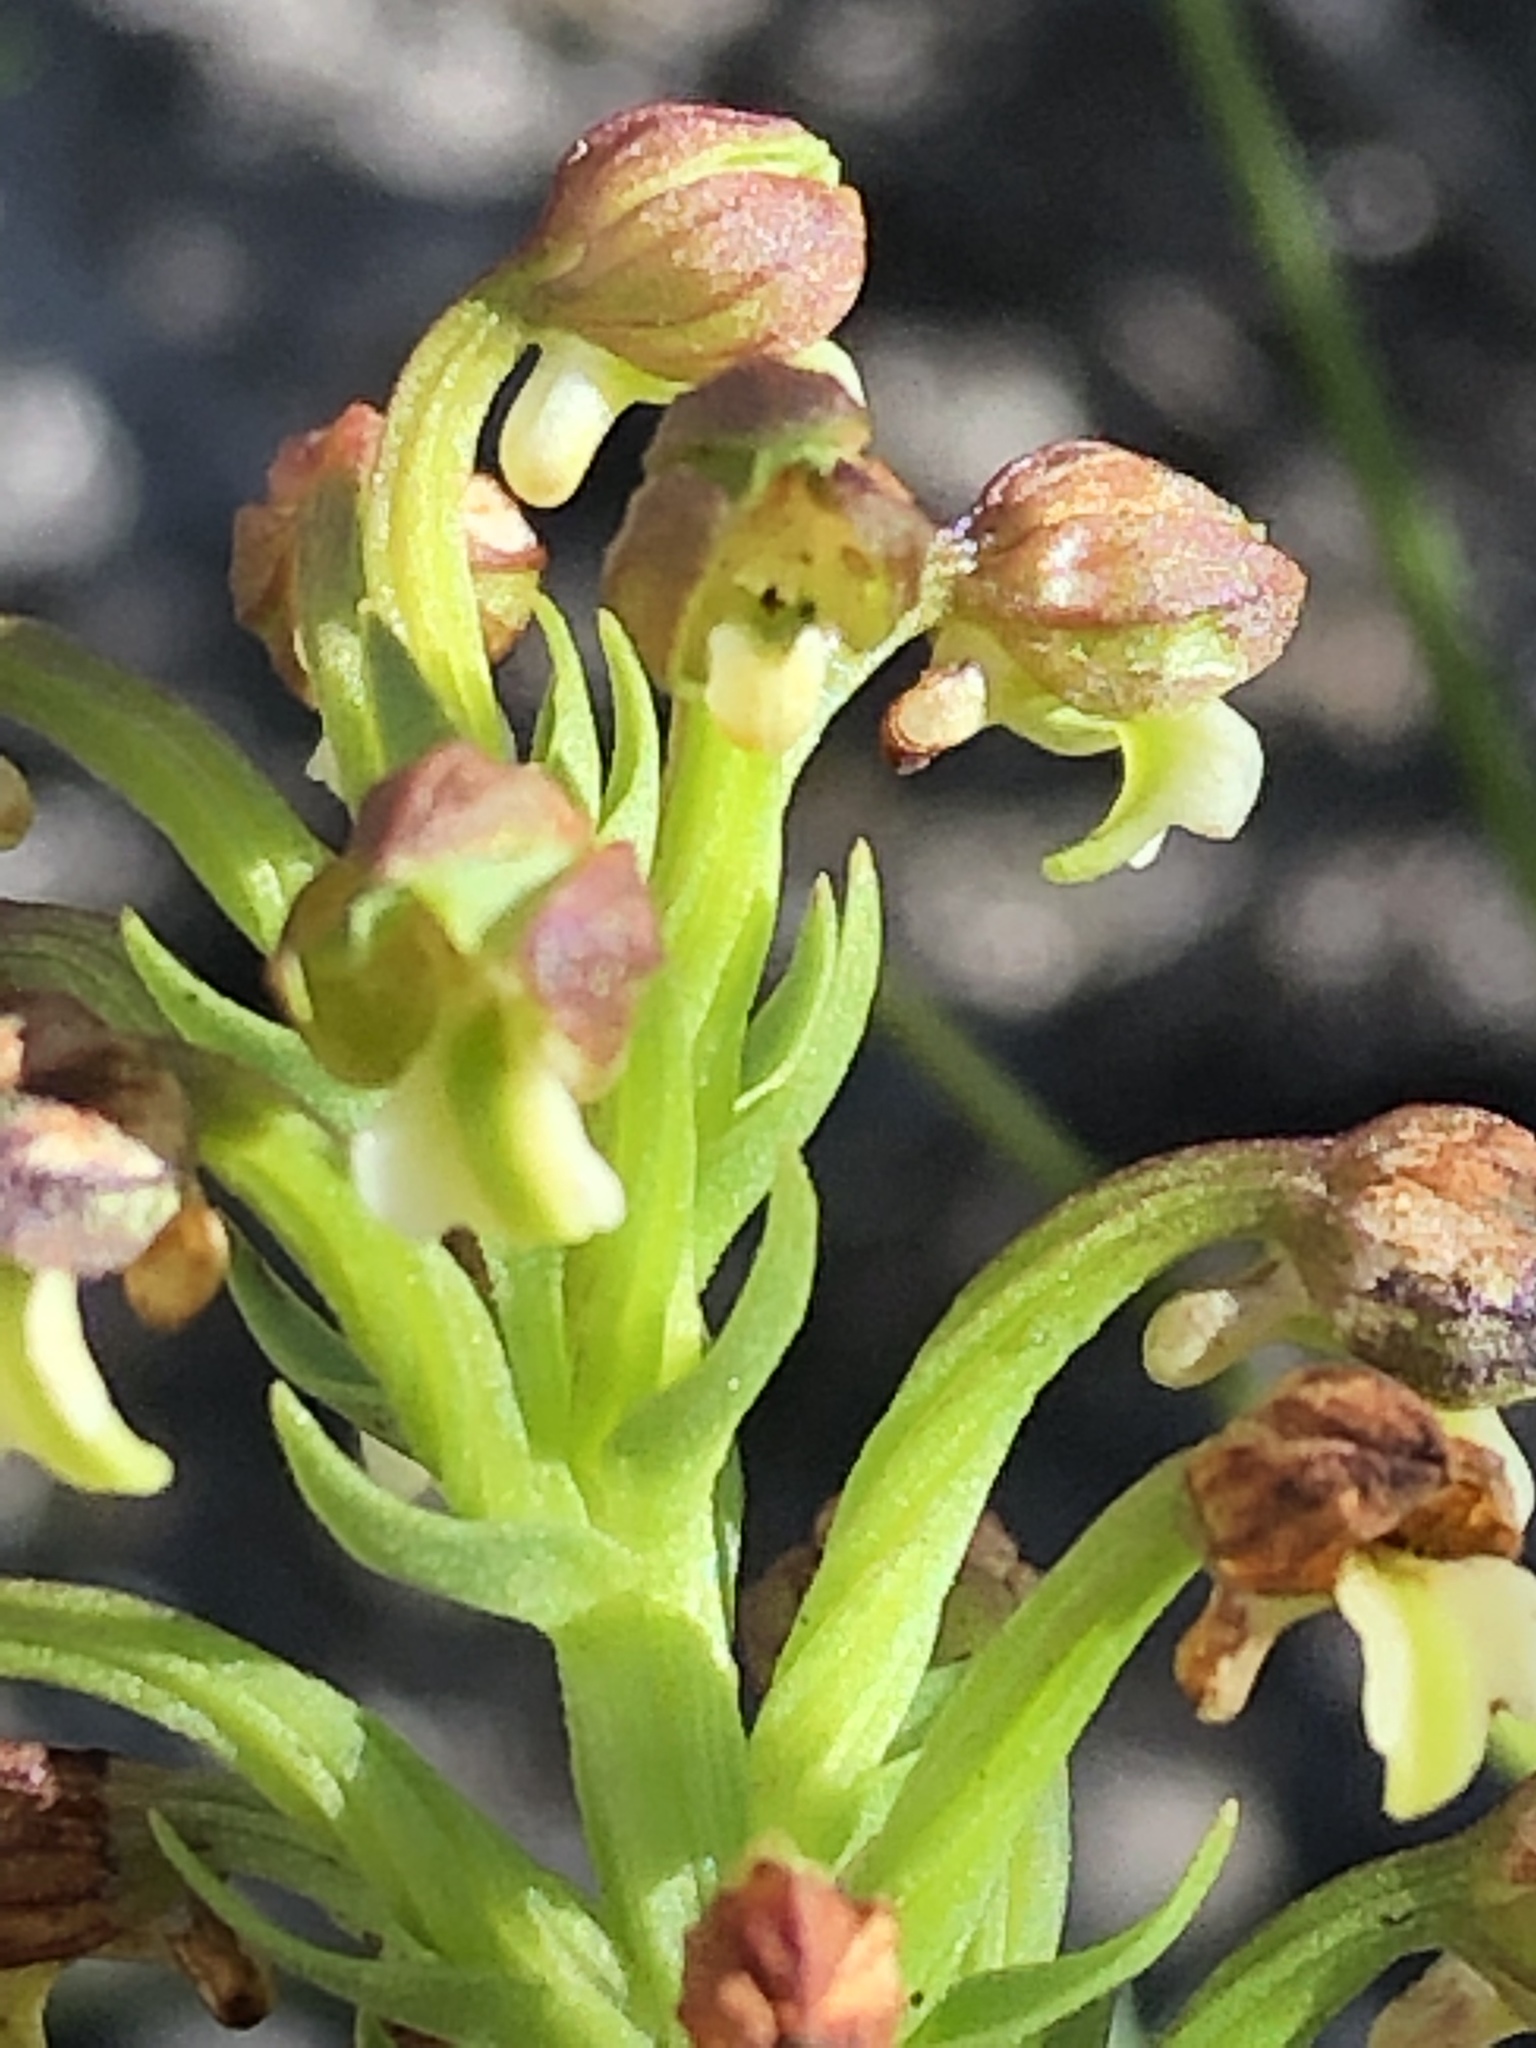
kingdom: Plantae
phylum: Tracheophyta
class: Liliopsida
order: Asparagales
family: Orchidaceae
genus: Brachycorythis
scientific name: Brachycorythis mac-owaniana
